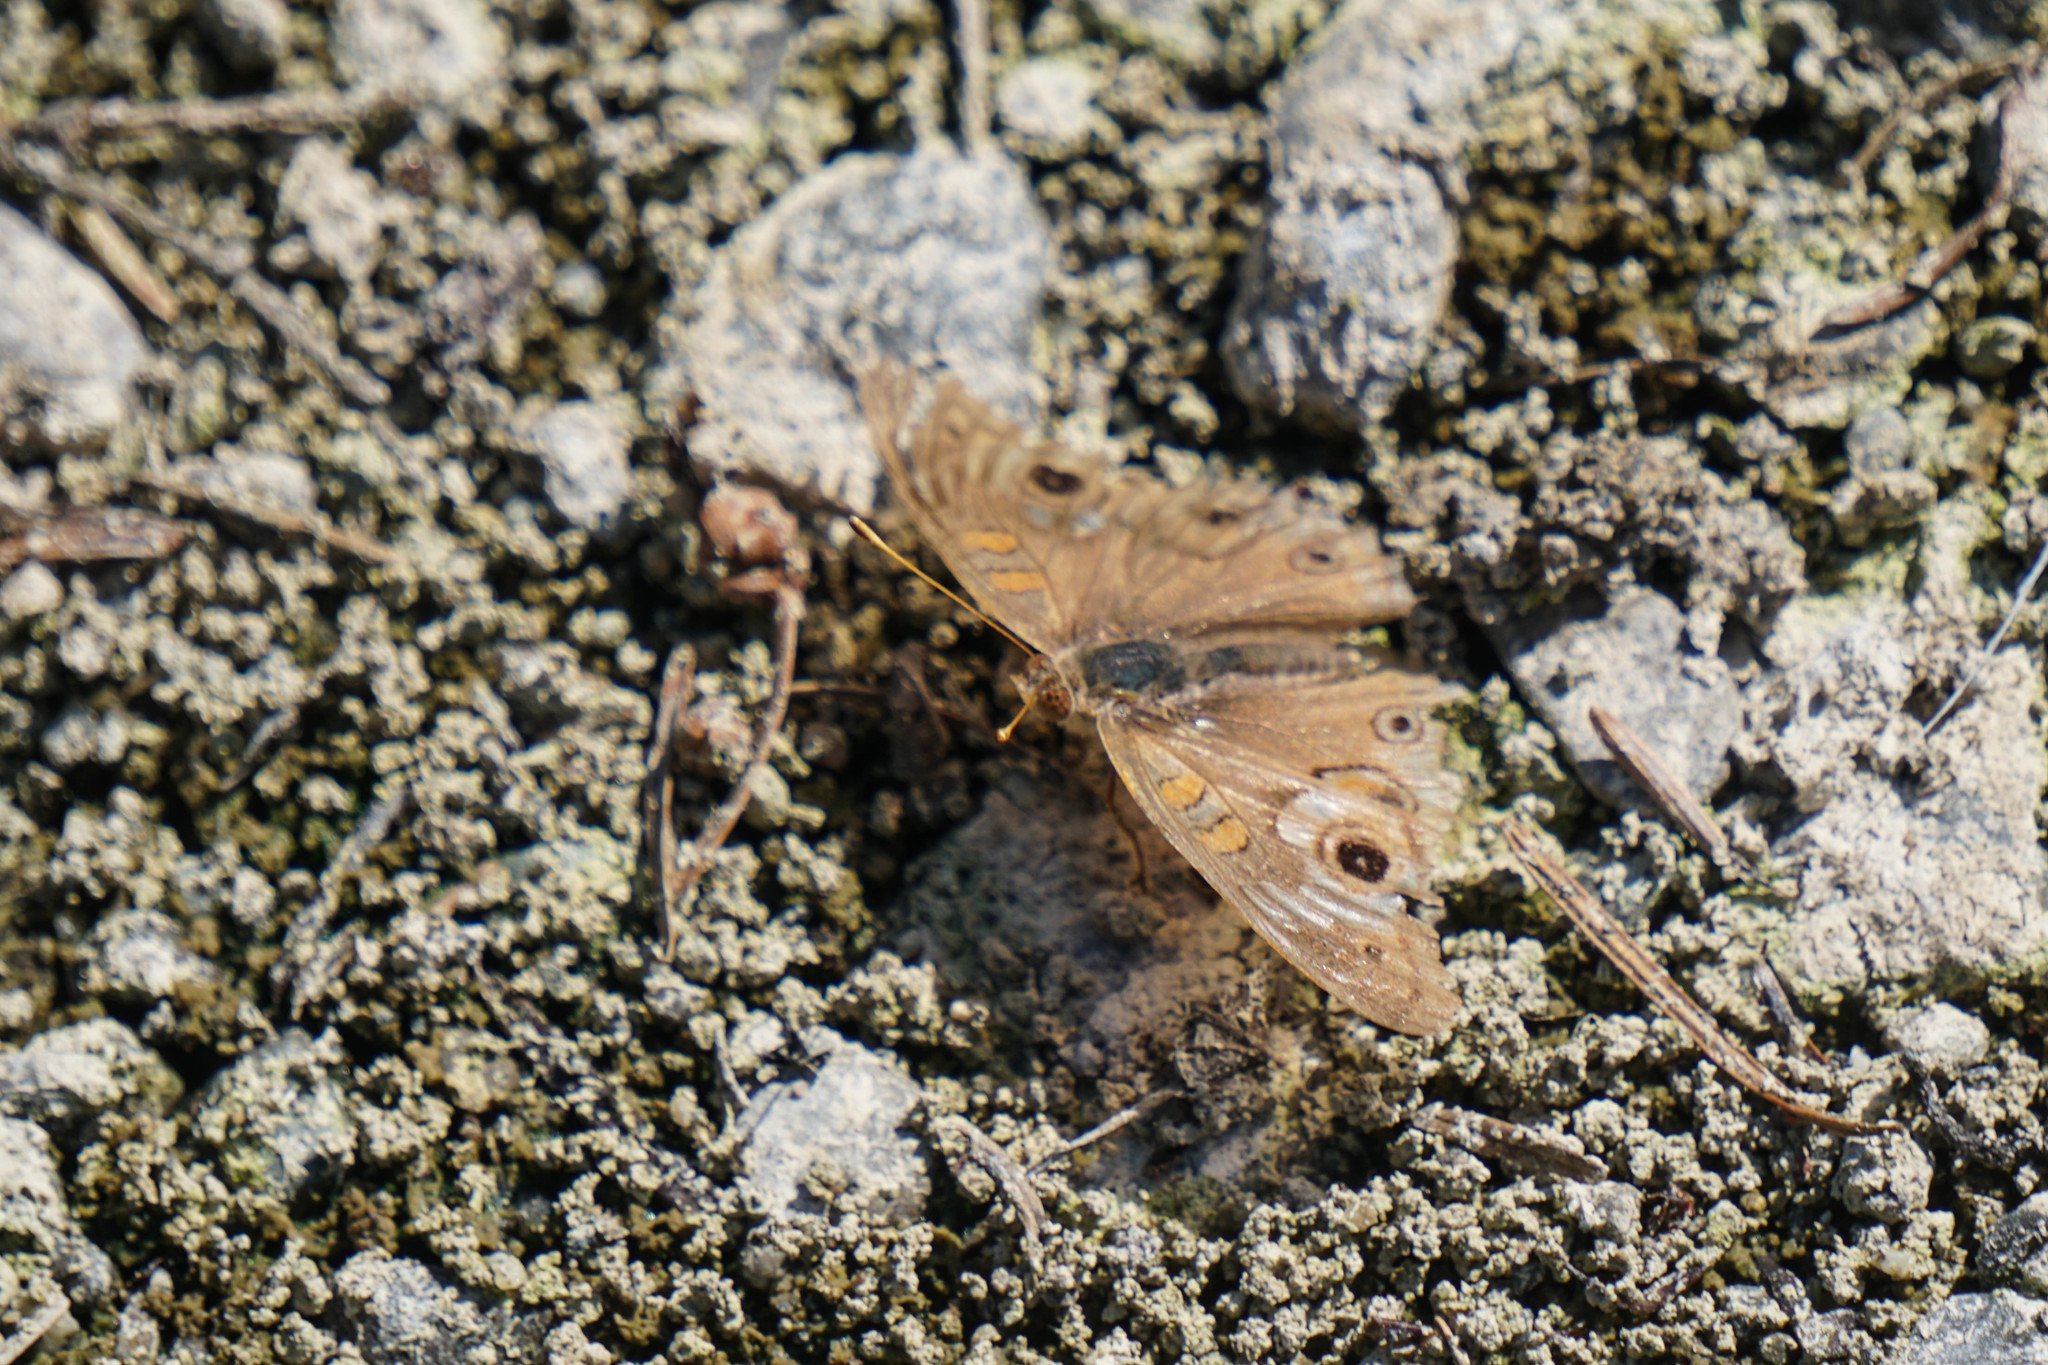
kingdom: Animalia
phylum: Arthropoda
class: Insecta
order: Lepidoptera
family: Nymphalidae
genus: Junonia
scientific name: Junonia grisea
